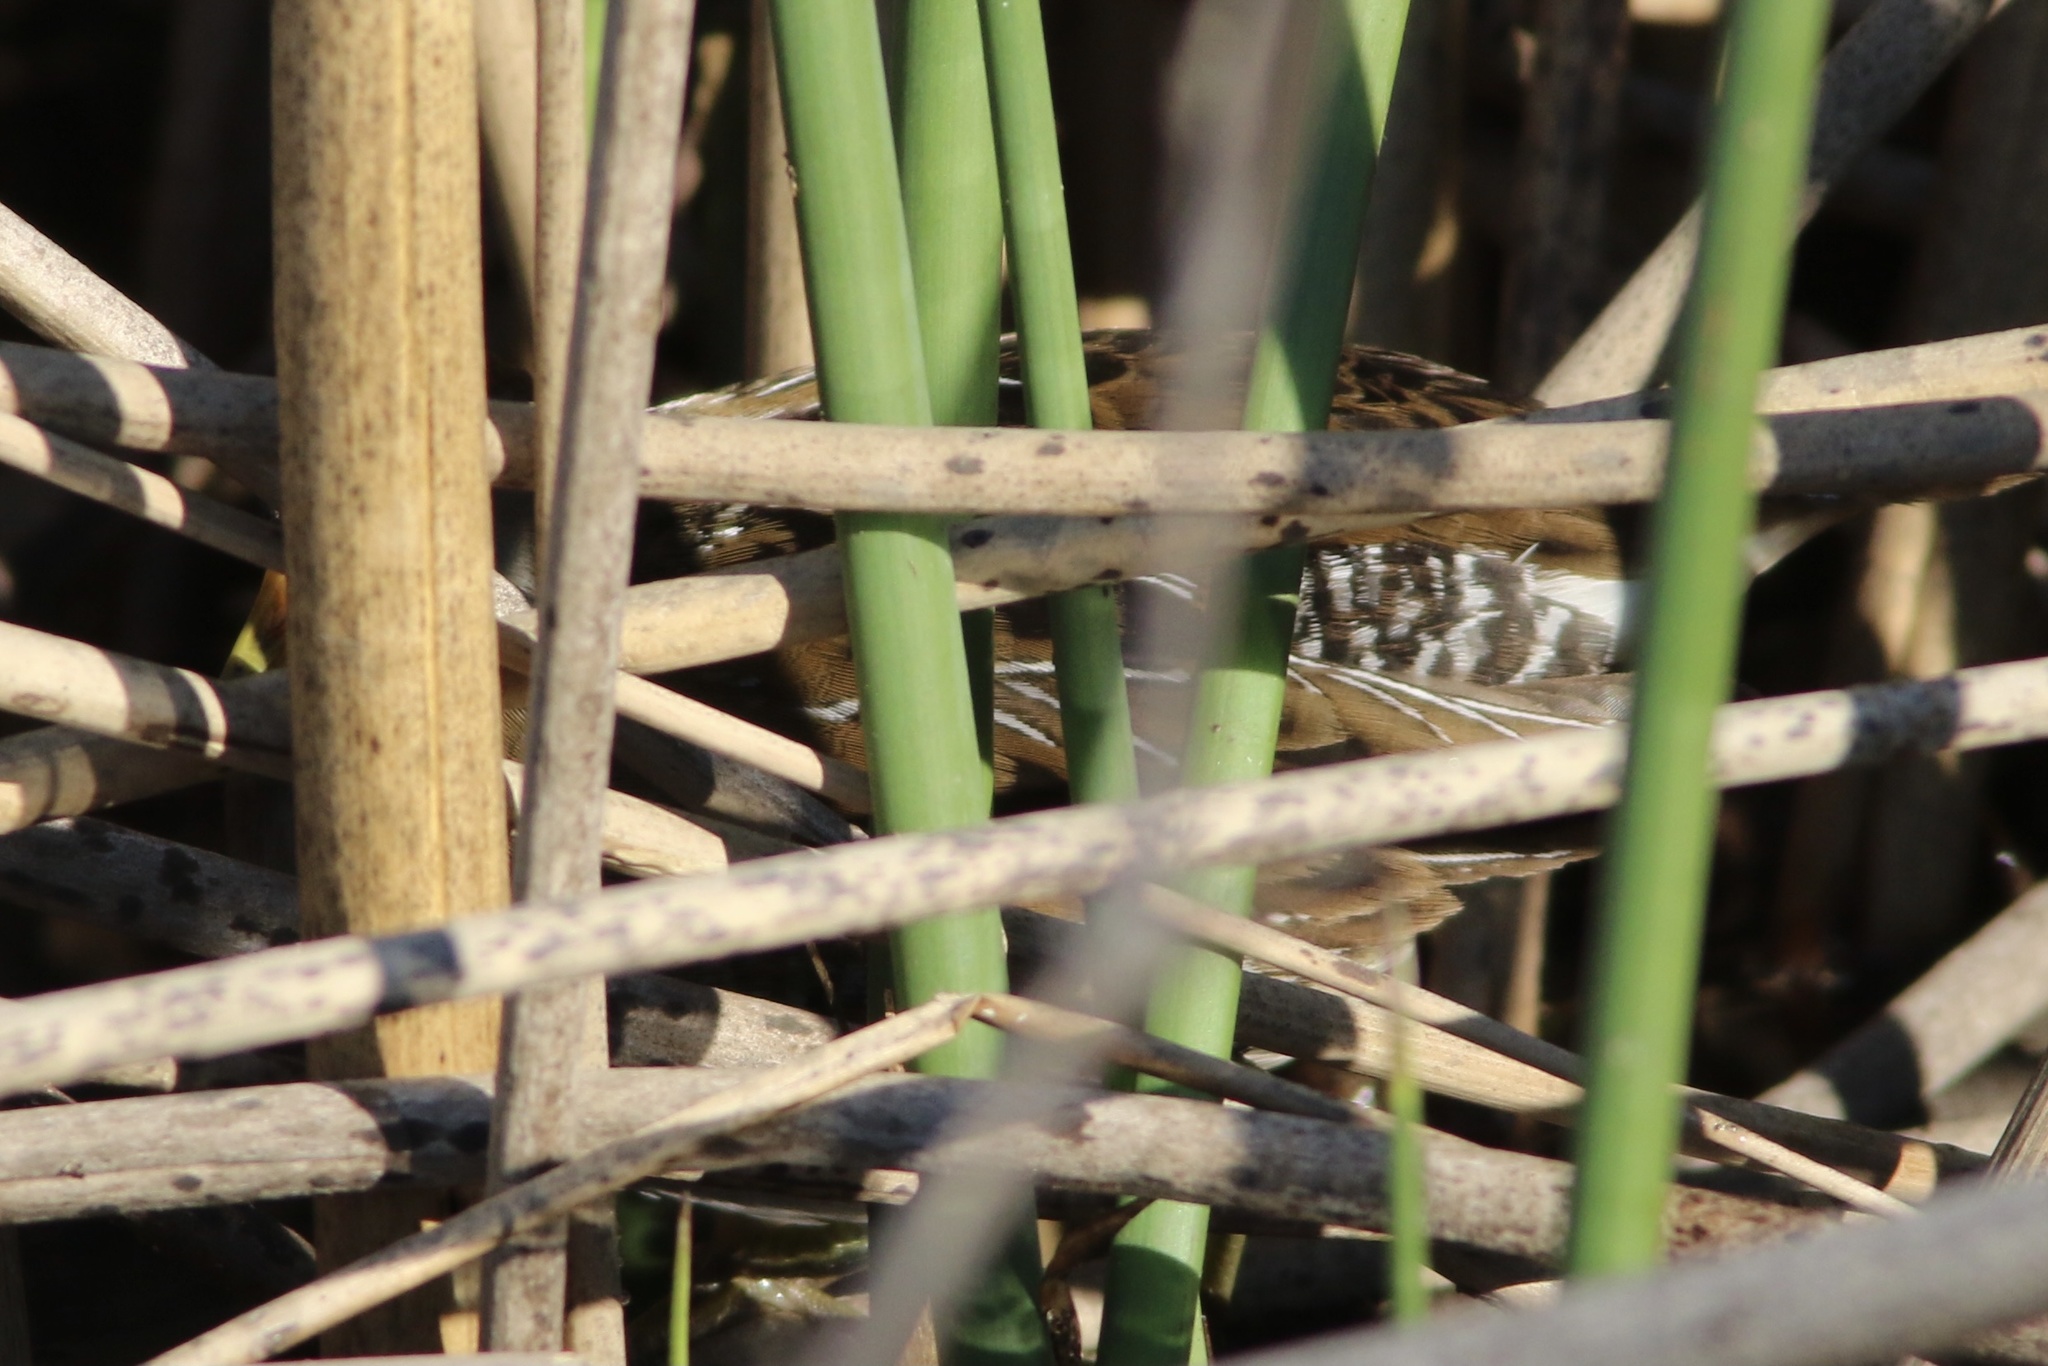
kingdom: Animalia
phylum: Chordata
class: Aves
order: Gruiformes
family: Rallidae
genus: Porzana
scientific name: Porzana carolina
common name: Sora
